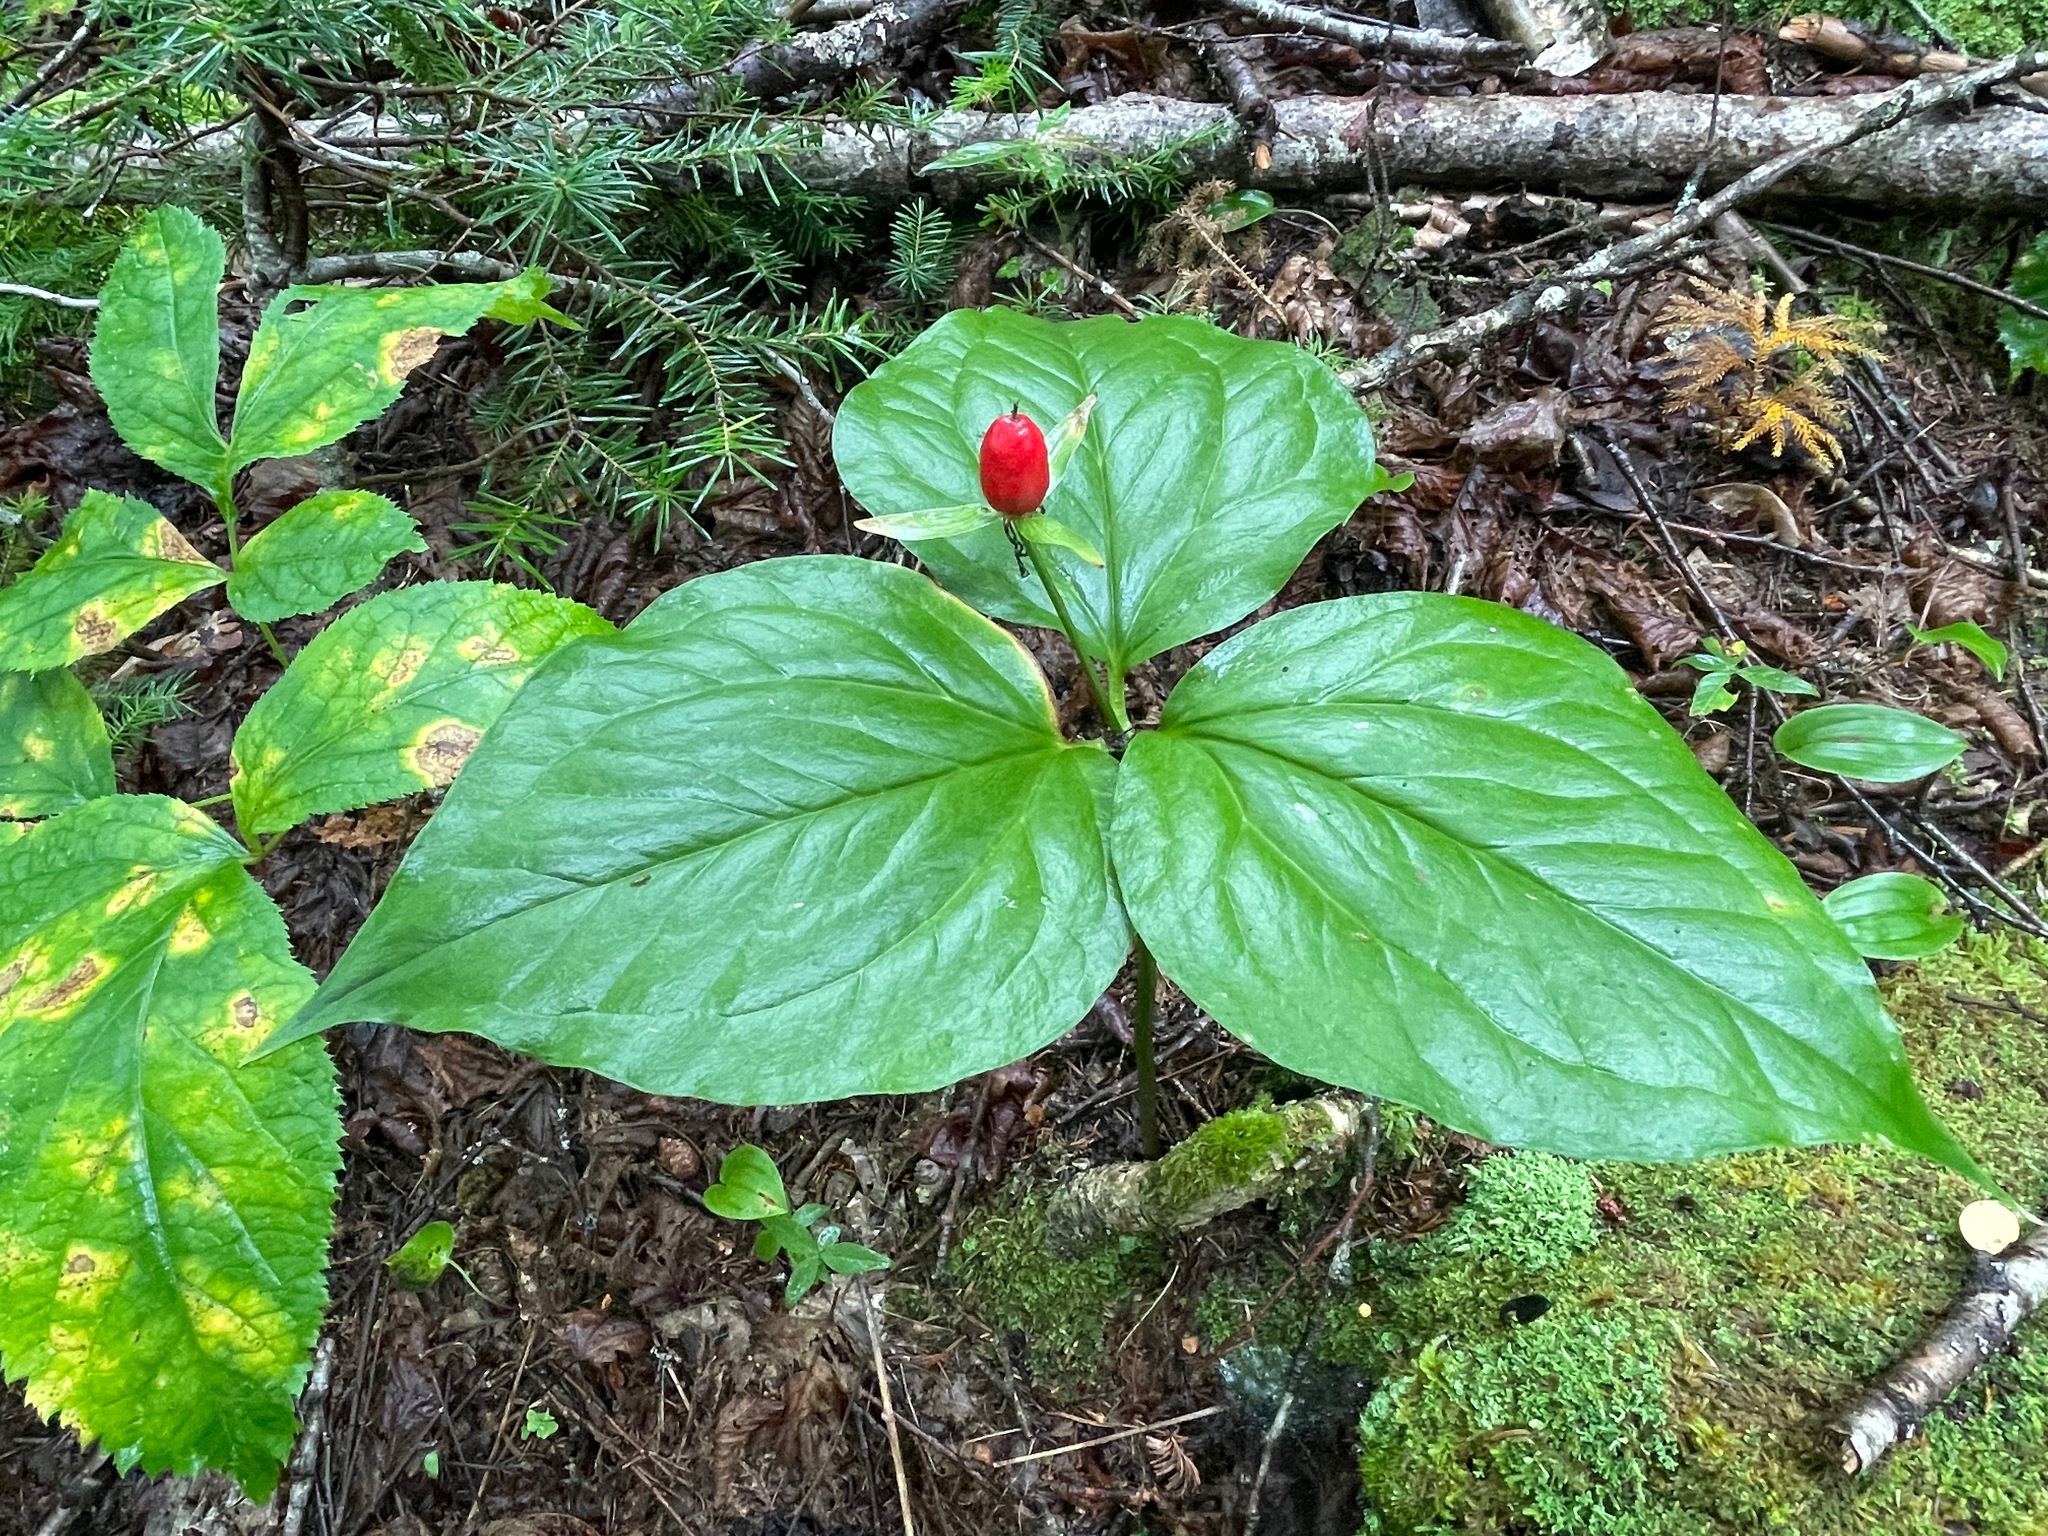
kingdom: Plantae
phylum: Tracheophyta
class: Liliopsida
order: Liliales
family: Melanthiaceae
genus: Trillium
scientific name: Trillium undulatum
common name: Paint trillium
